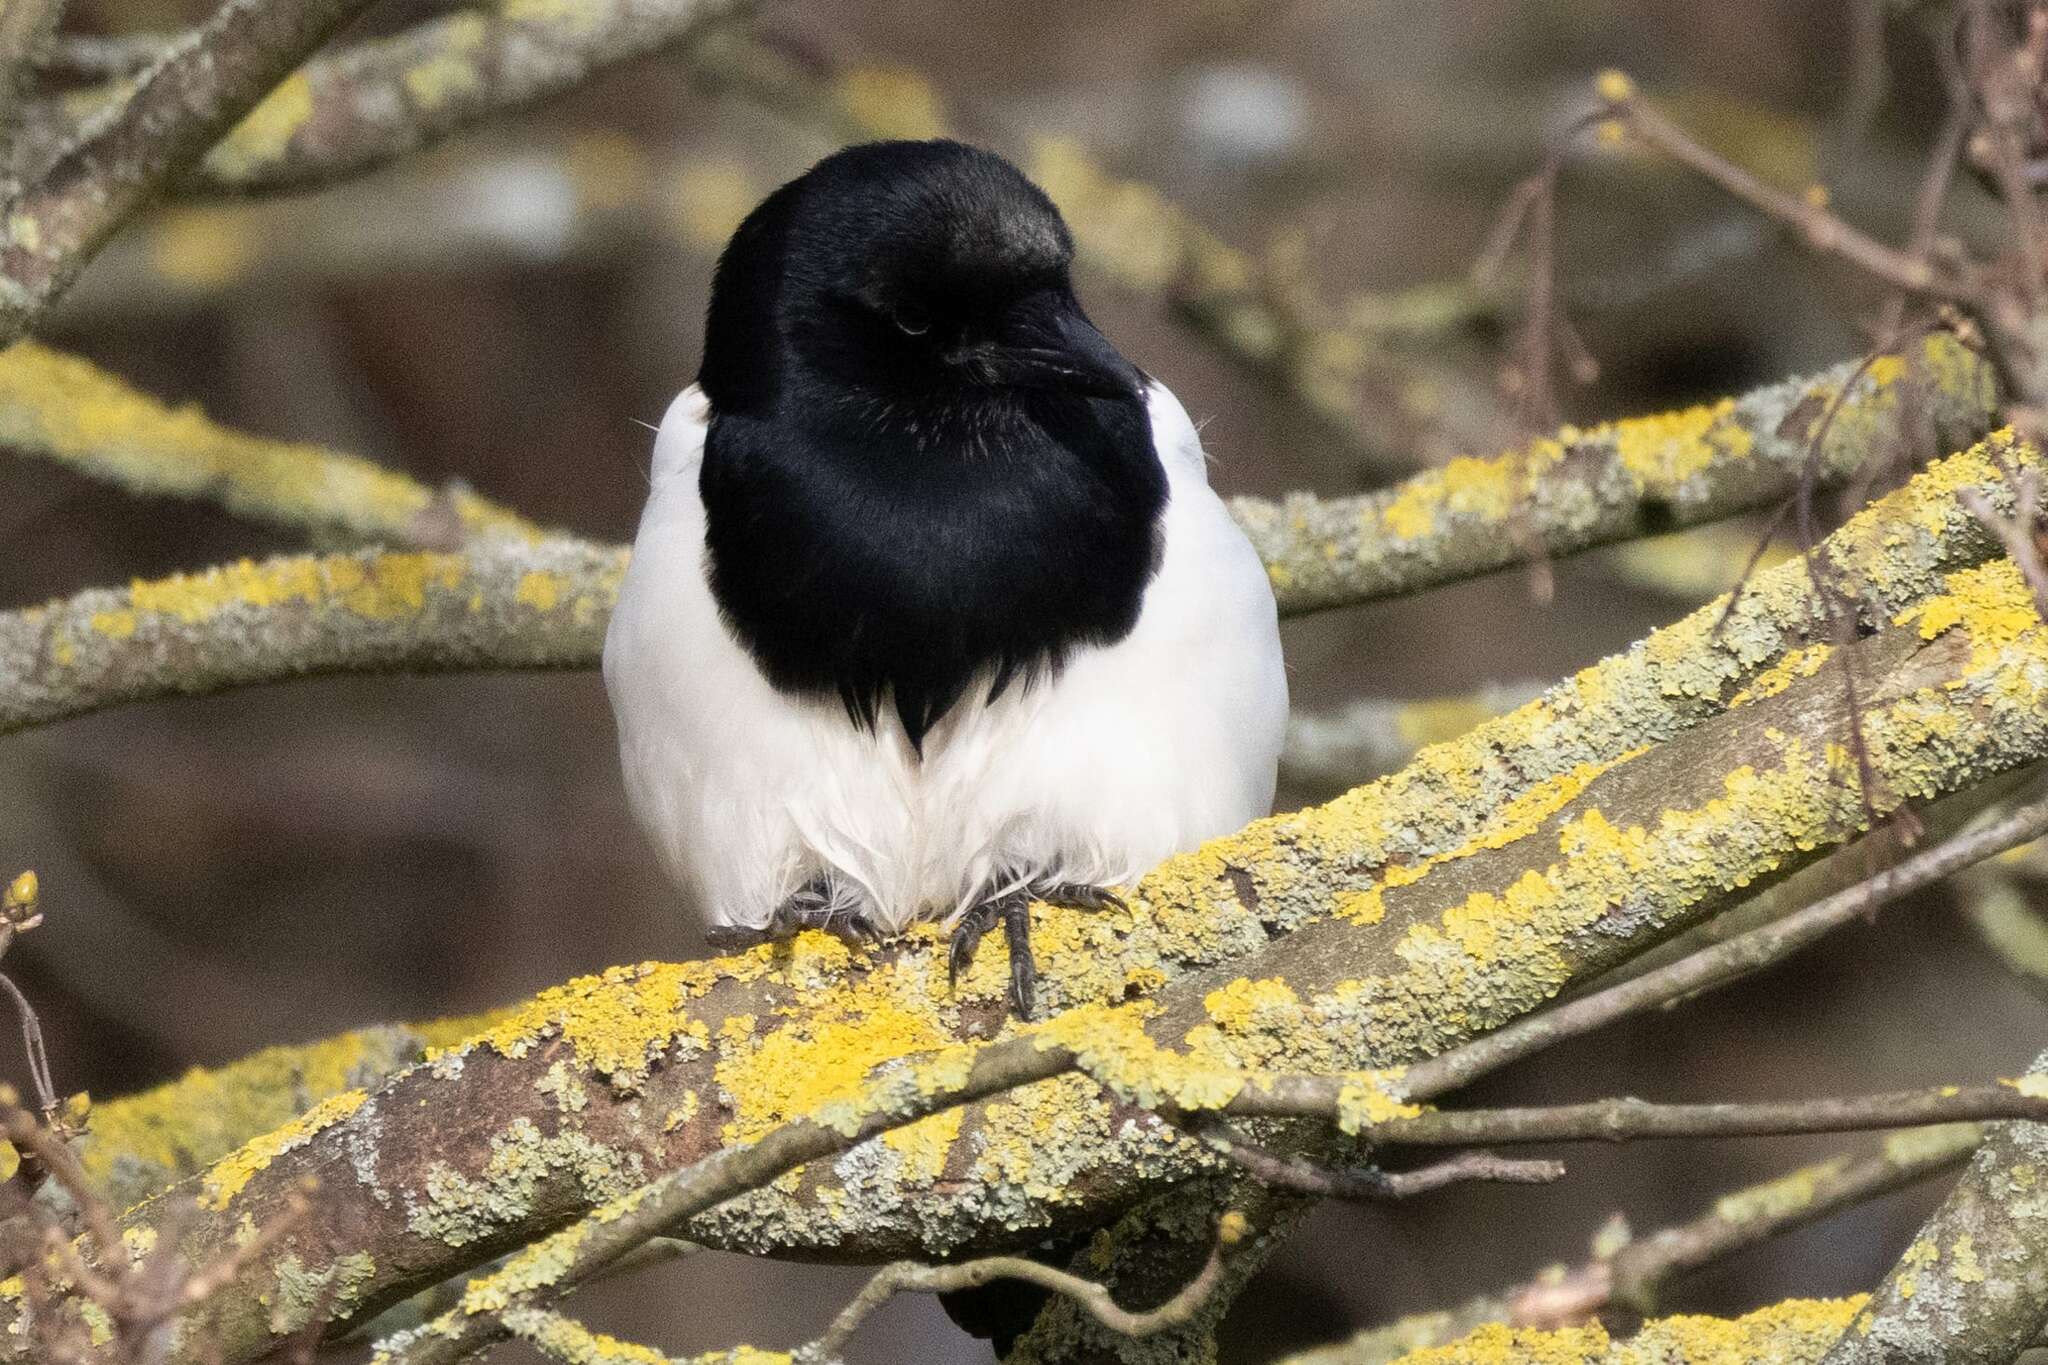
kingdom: Animalia
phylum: Chordata
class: Aves
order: Passeriformes
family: Corvidae
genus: Pica
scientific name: Pica pica
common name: Eurasian magpie
